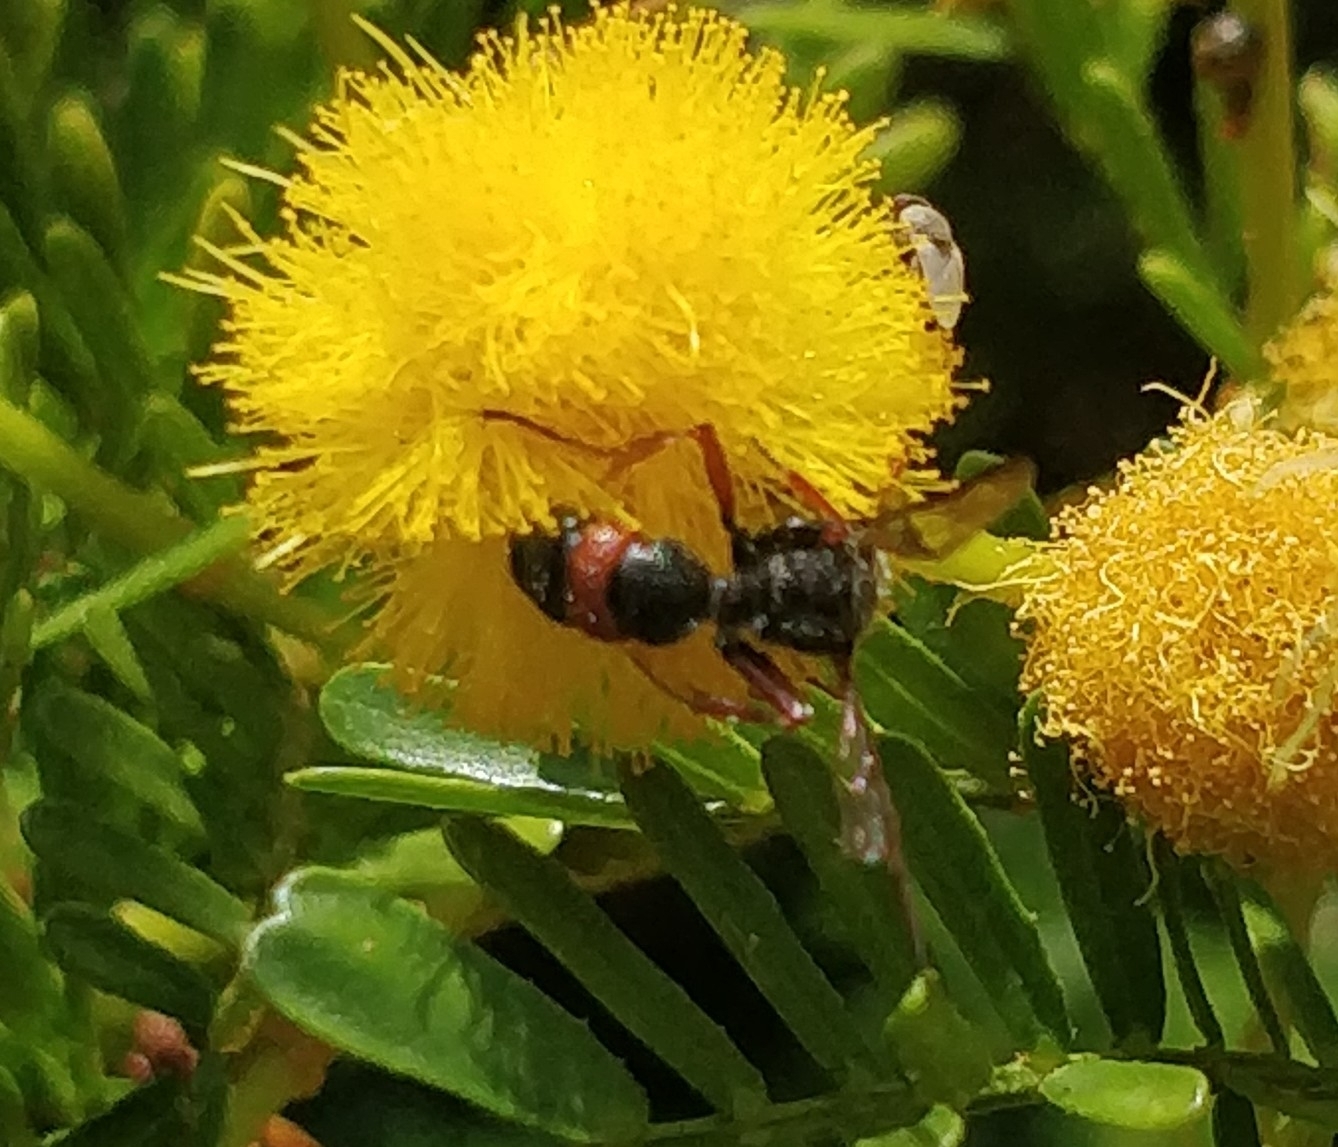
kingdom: Animalia
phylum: Arthropoda
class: Insecta
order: Hymenoptera
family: Crabronidae
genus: Cerceris
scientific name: Cerceris concinna
